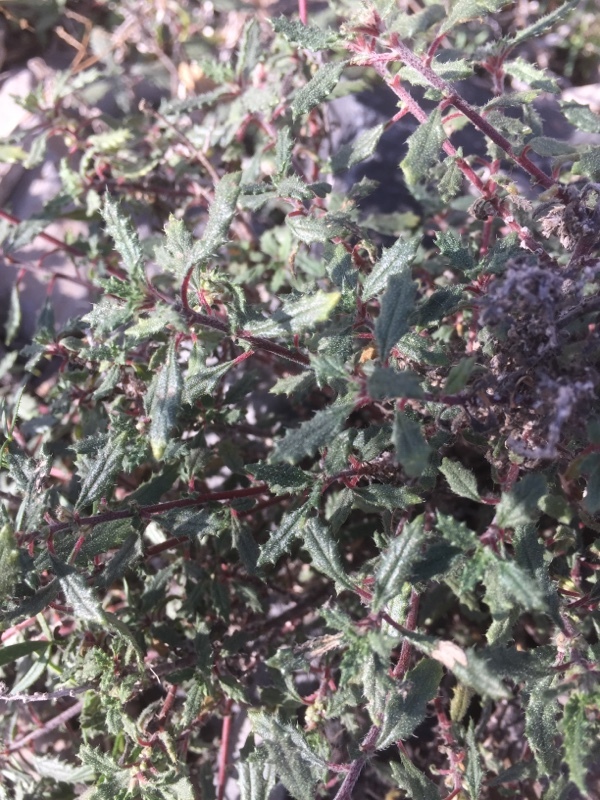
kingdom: Plantae
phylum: Tracheophyta
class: Magnoliopsida
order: Rosales
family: Urticaceae
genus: Forsskaolea
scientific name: Forsskaolea angustifolia
